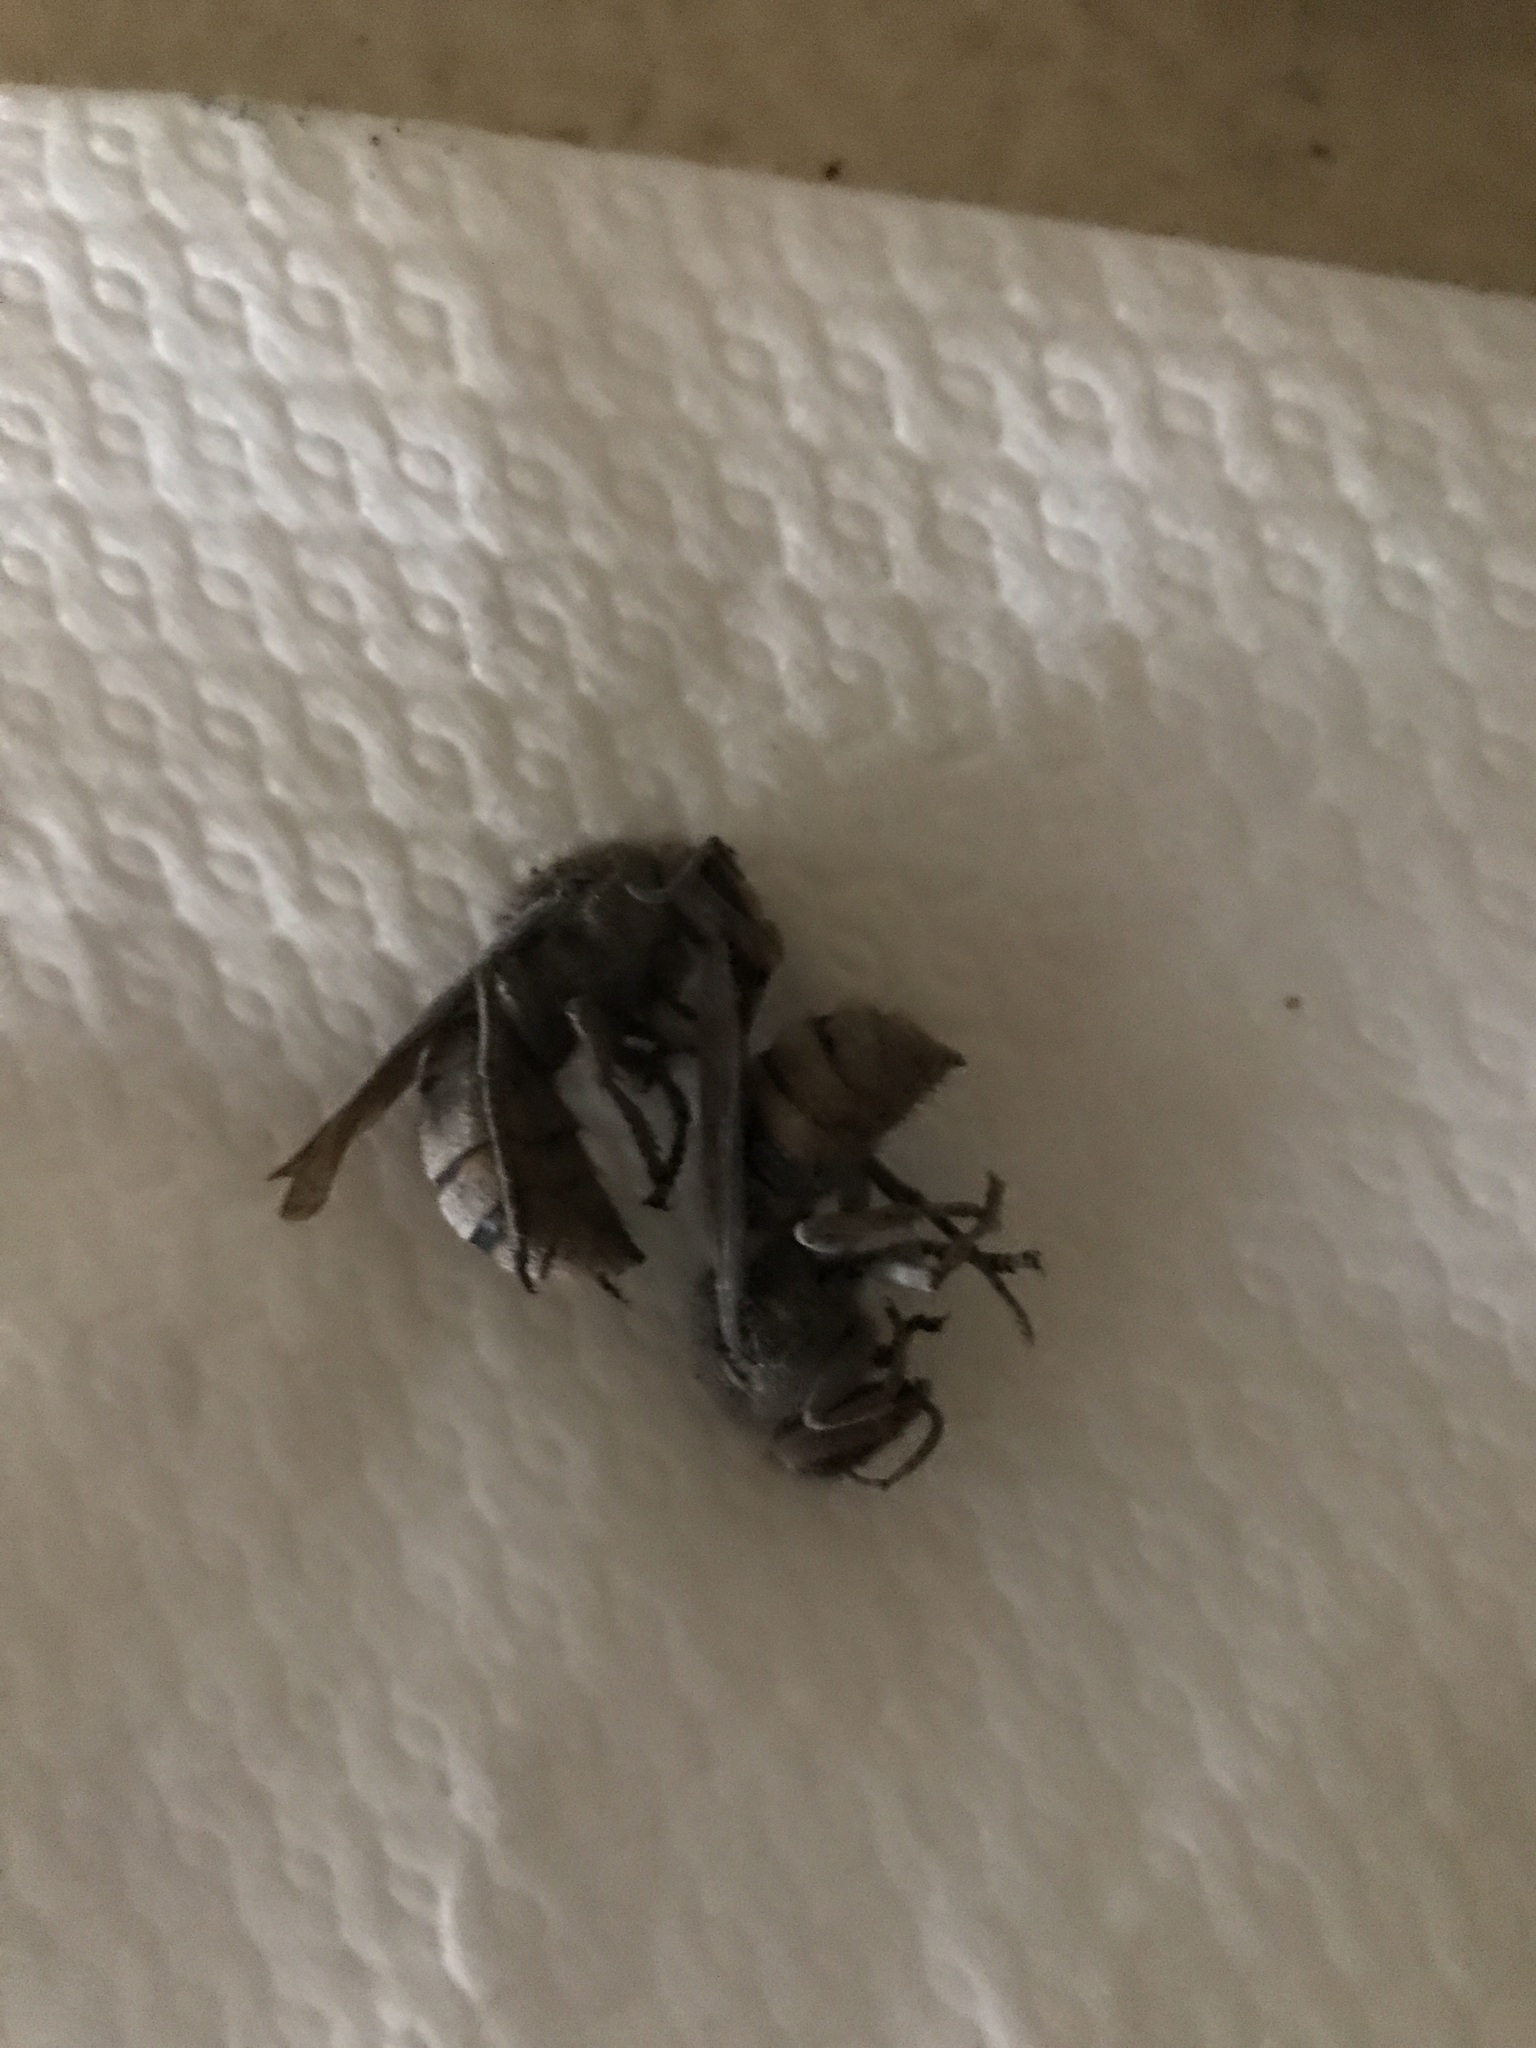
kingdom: Animalia
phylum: Arthropoda
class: Insecta
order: Hymenoptera
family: Vespidae
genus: Vespa
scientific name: Vespa crabro
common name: Hornet
